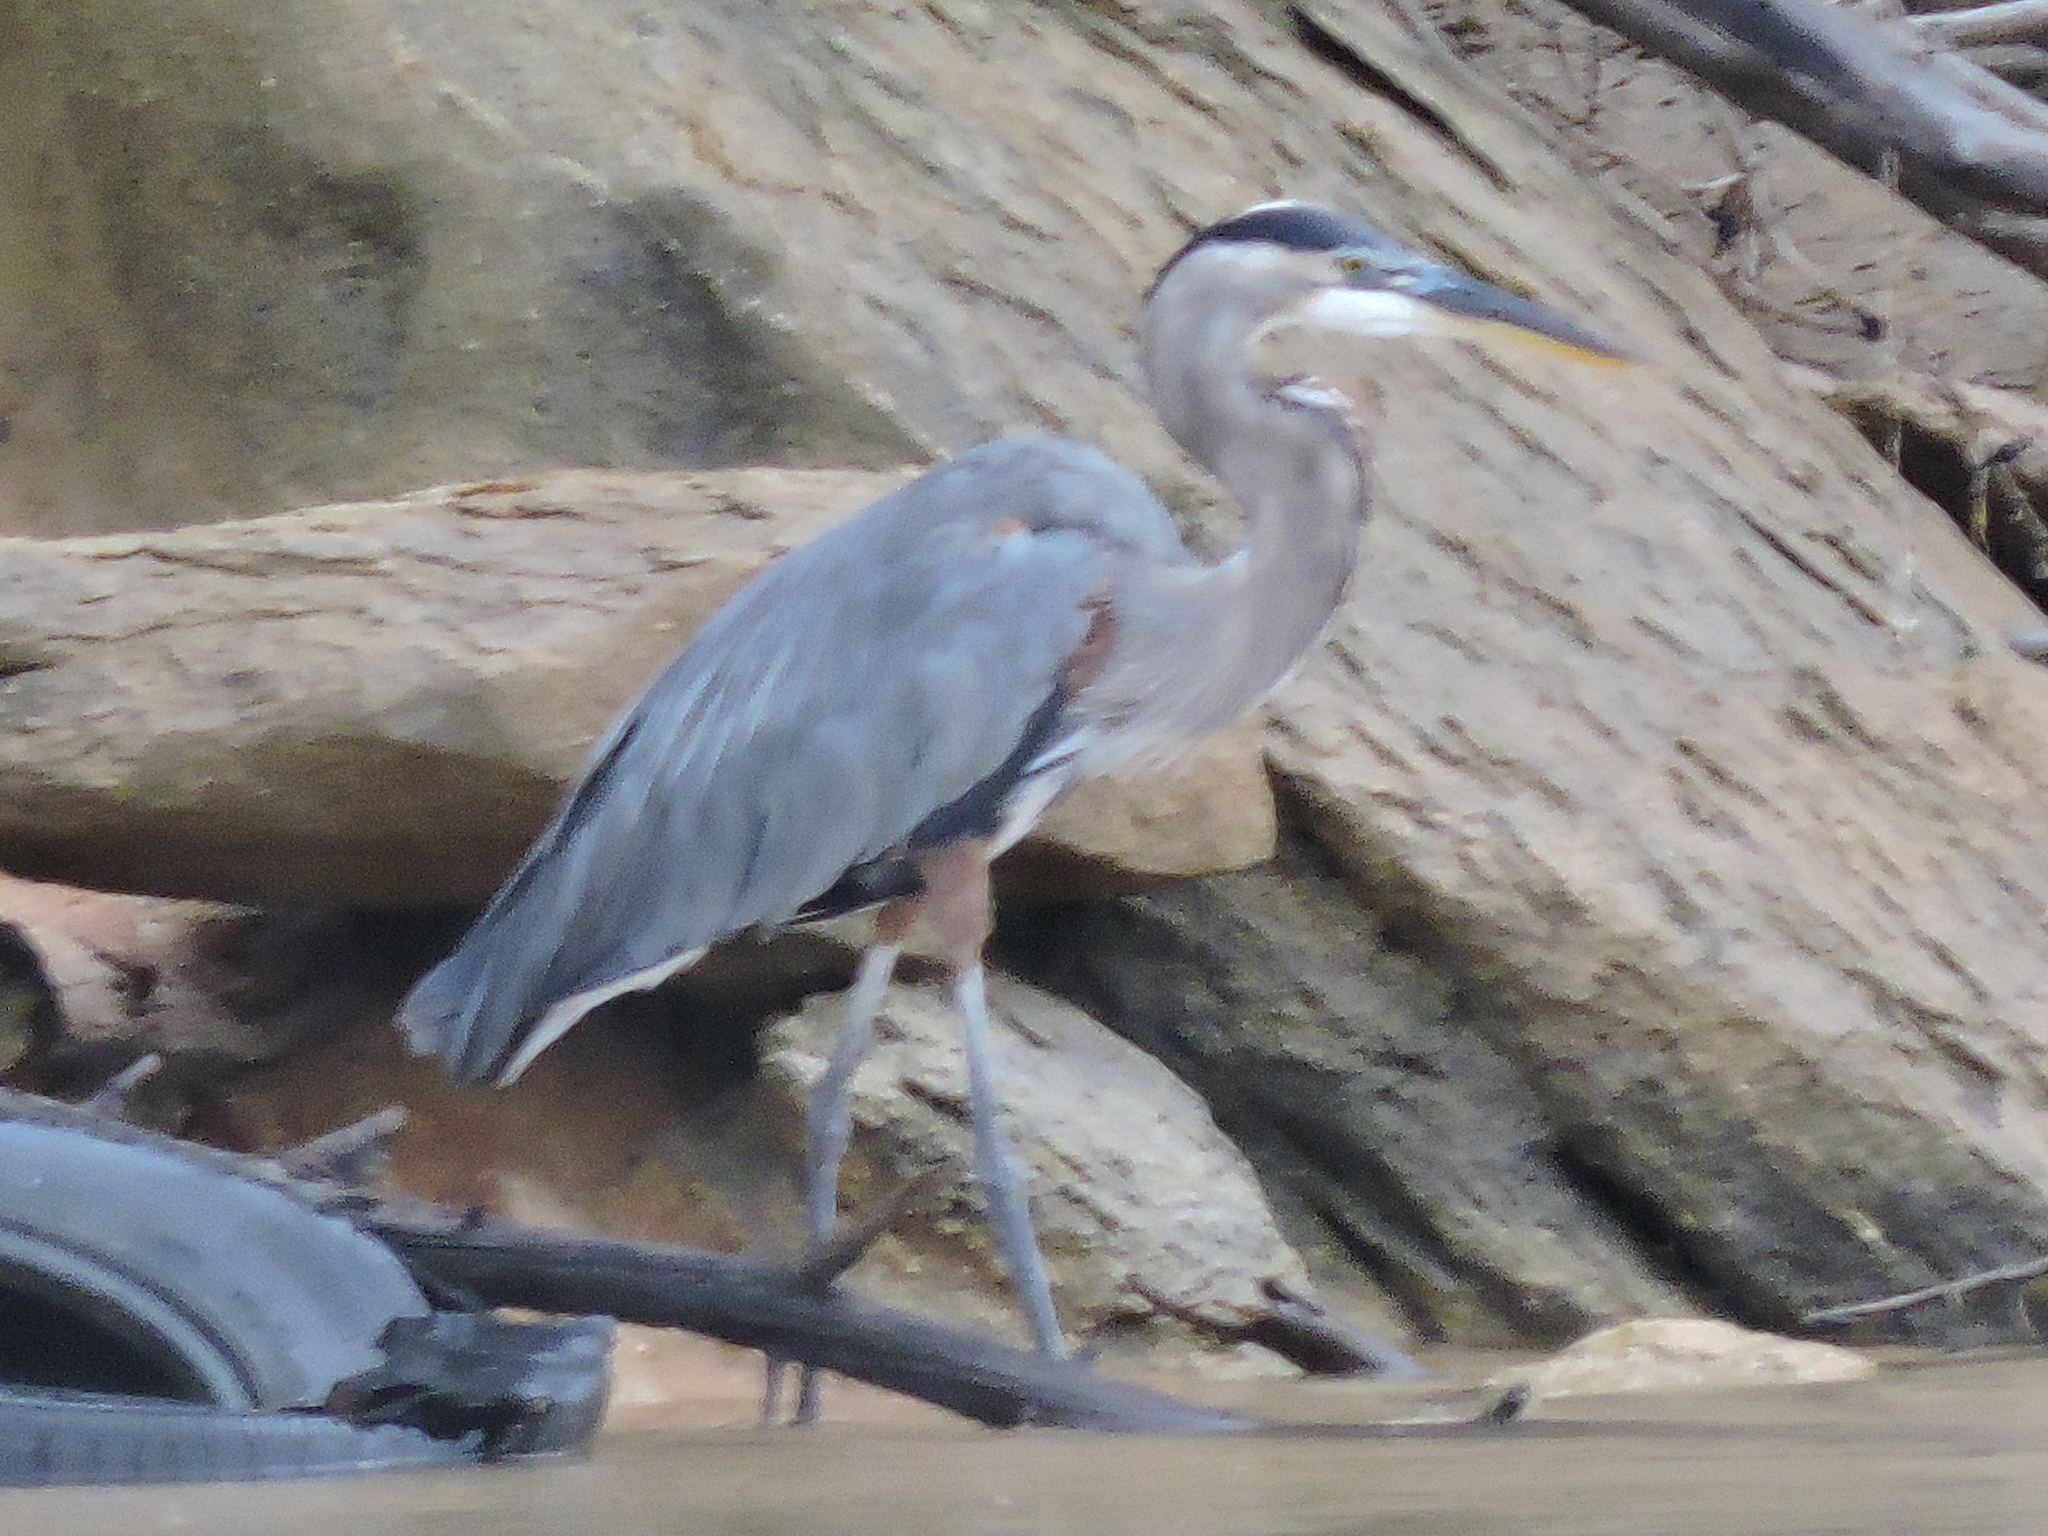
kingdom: Animalia
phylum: Chordata
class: Aves
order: Pelecaniformes
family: Ardeidae
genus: Ardea
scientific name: Ardea herodias
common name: Great blue heron
